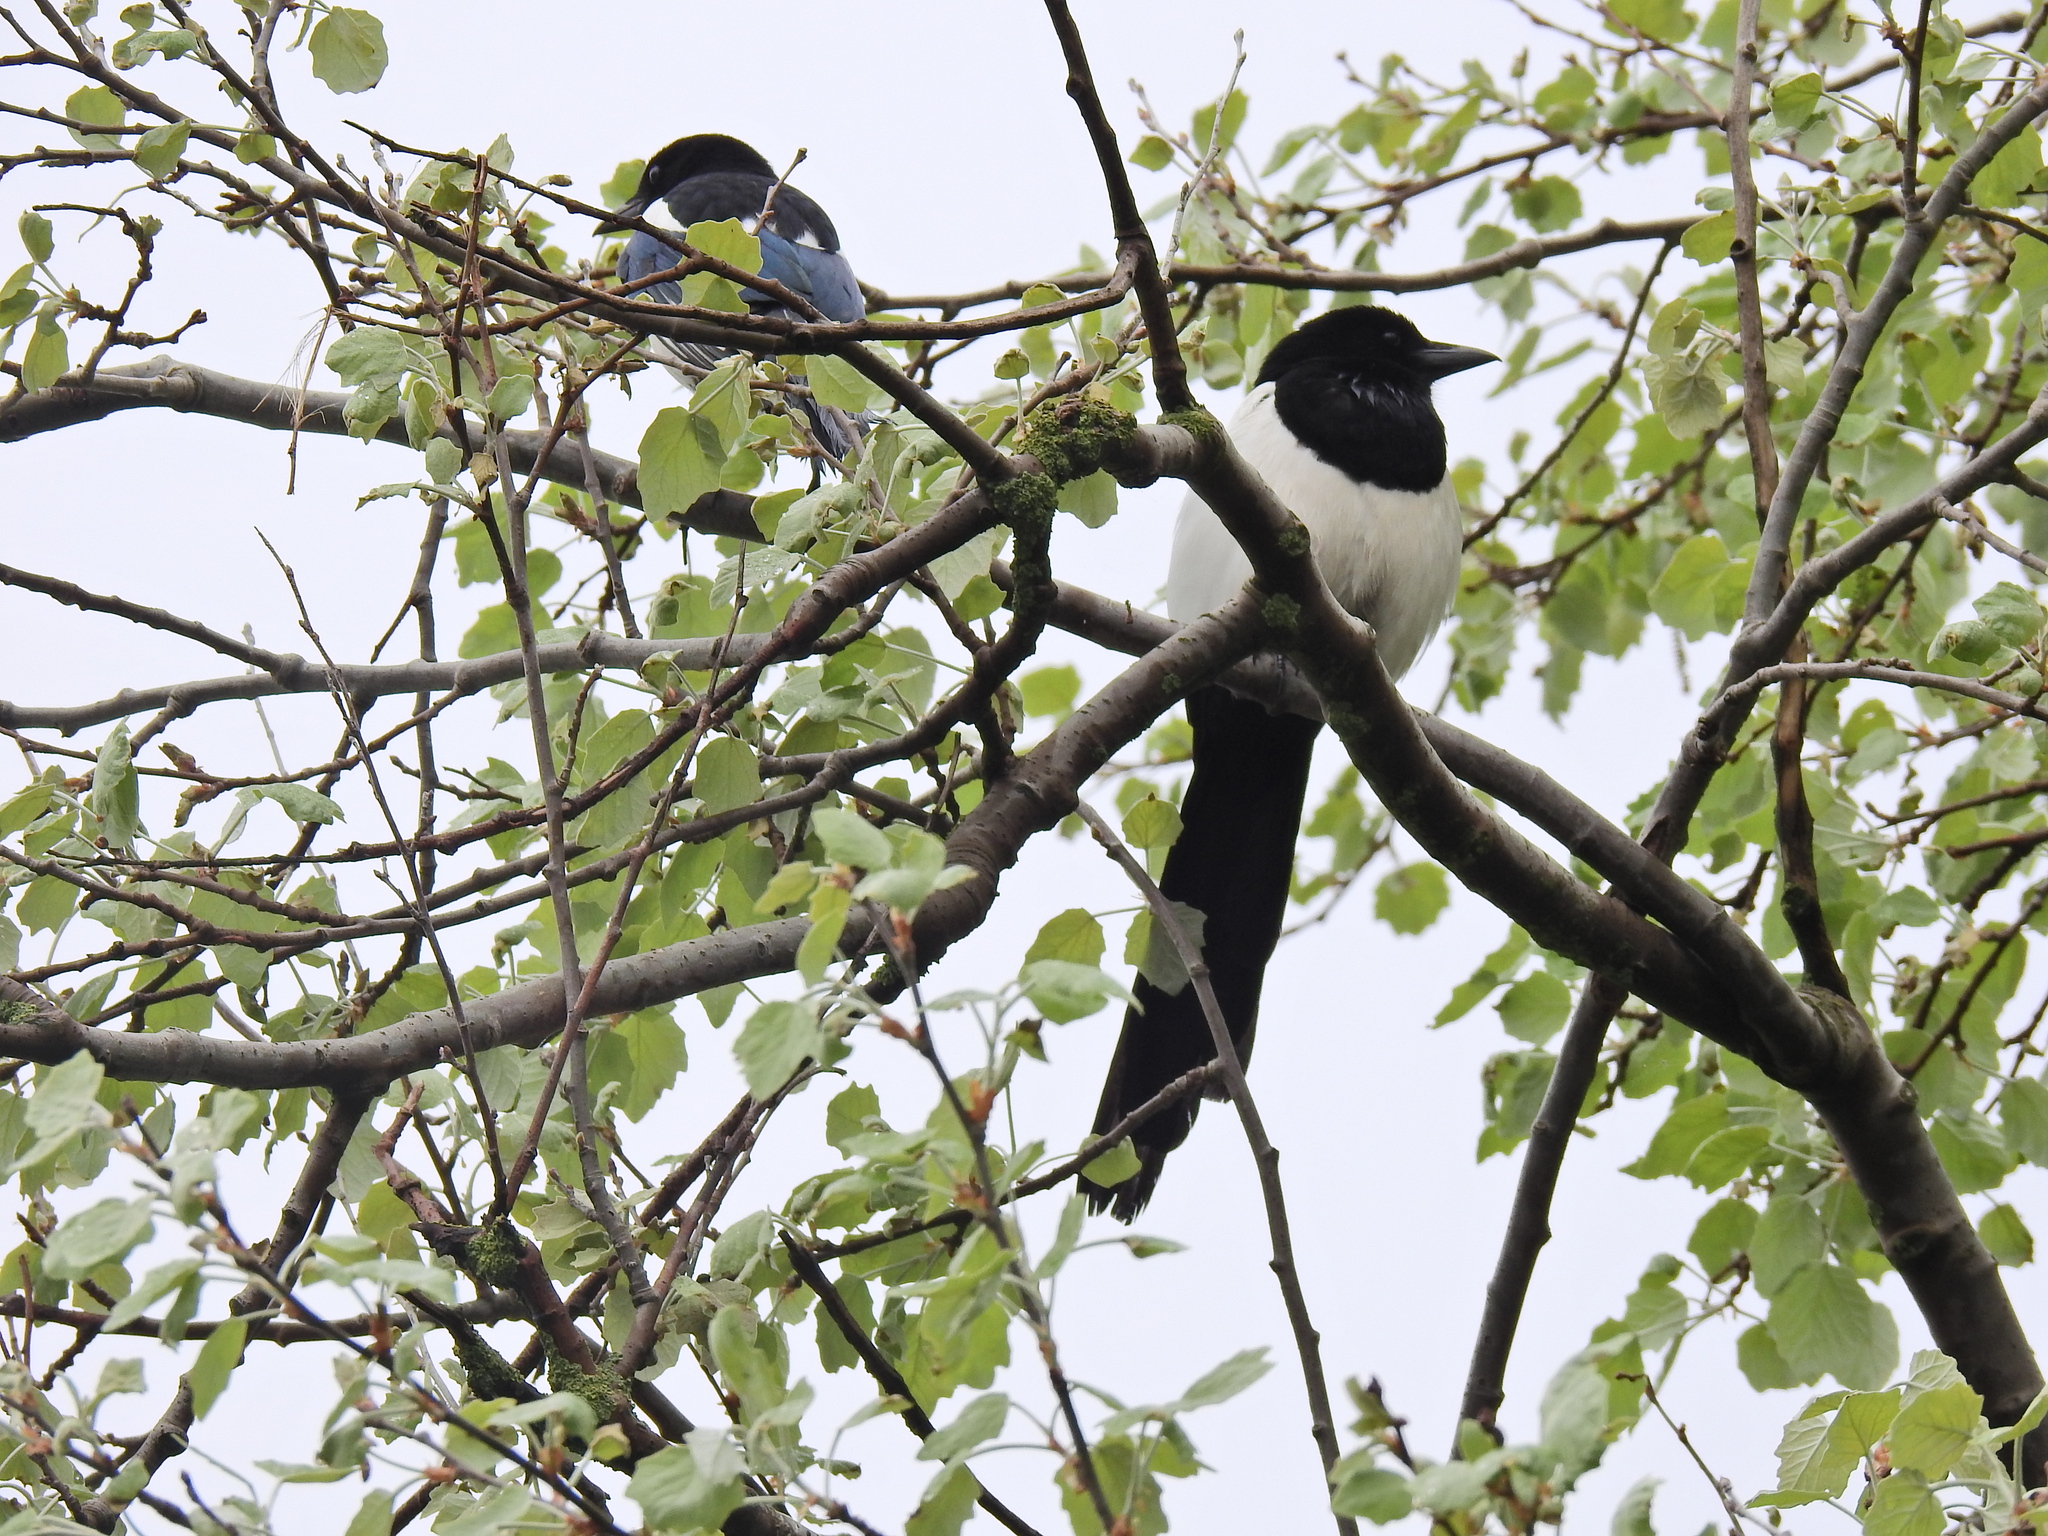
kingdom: Animalia
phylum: Chordata
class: Aves
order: Passeriformes
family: Corvidae
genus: Pica
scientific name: Pica pica
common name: Eurasian magpie
